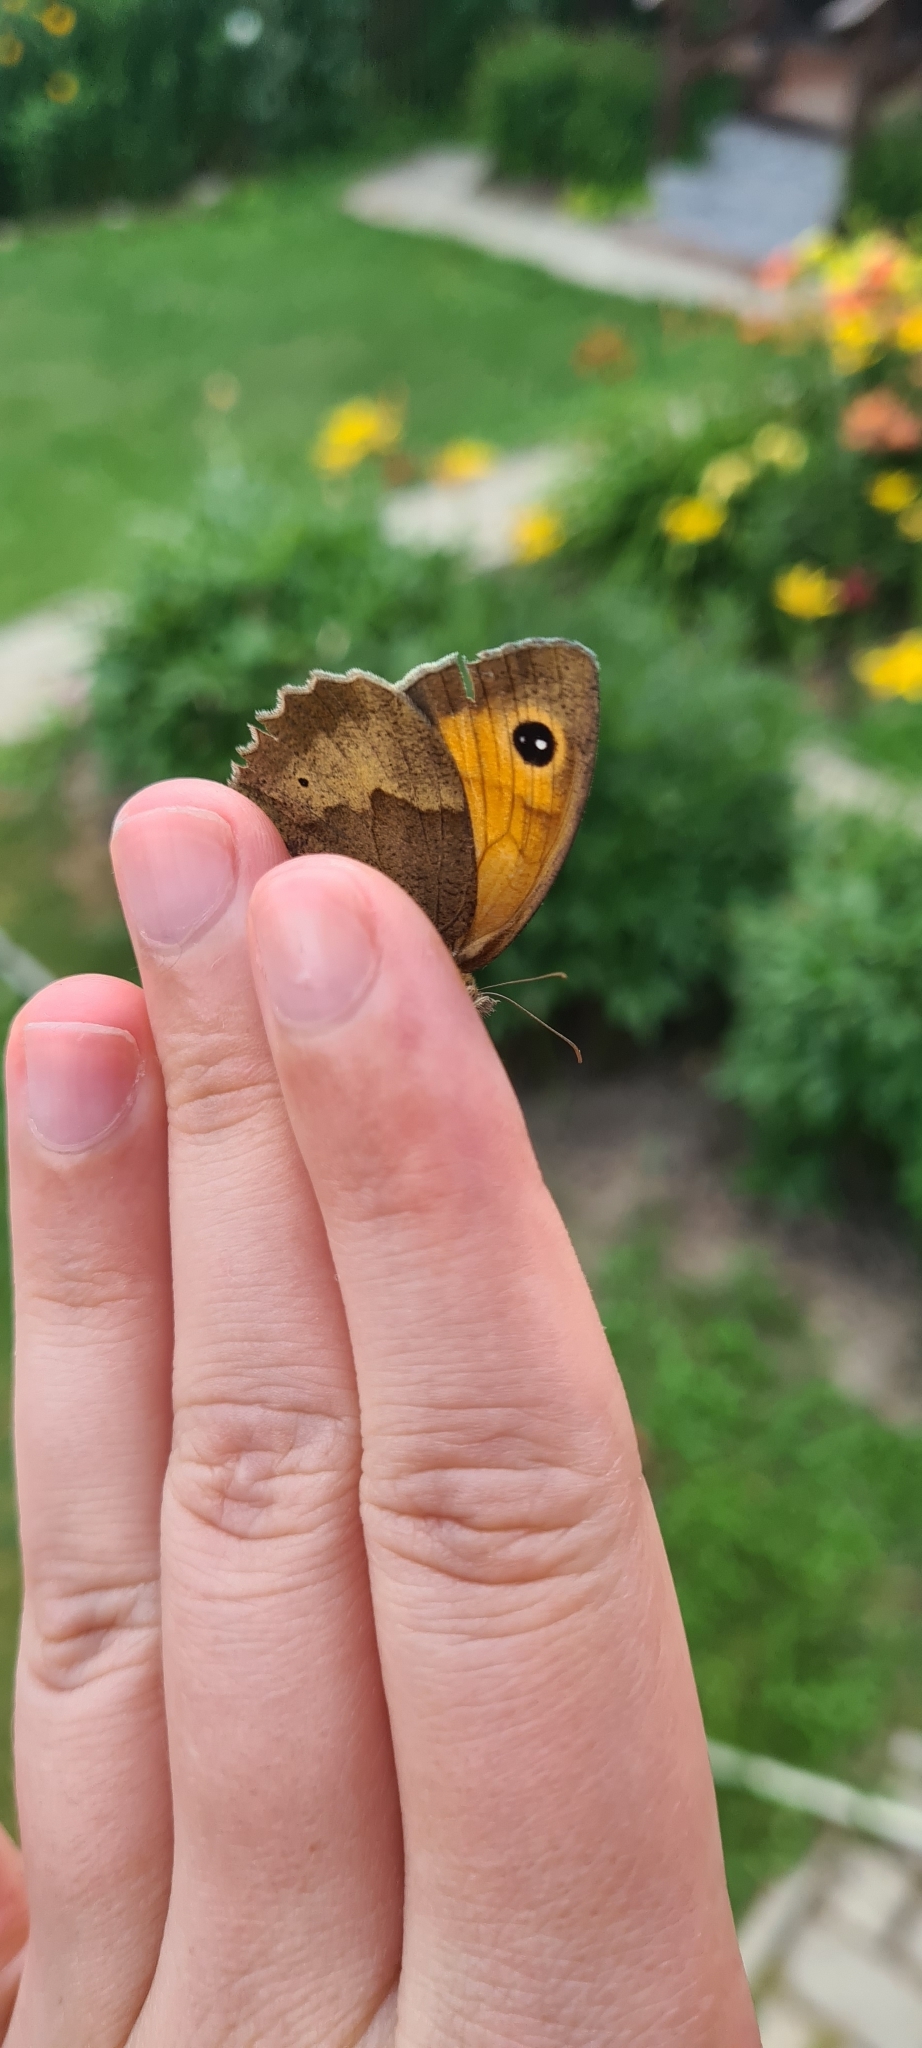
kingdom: Animalia
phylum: Arthropoda
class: Insecta
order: Lepidoptera
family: Nymphalidae
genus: Maniola
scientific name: Maniola jurtina
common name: Meadow brown
